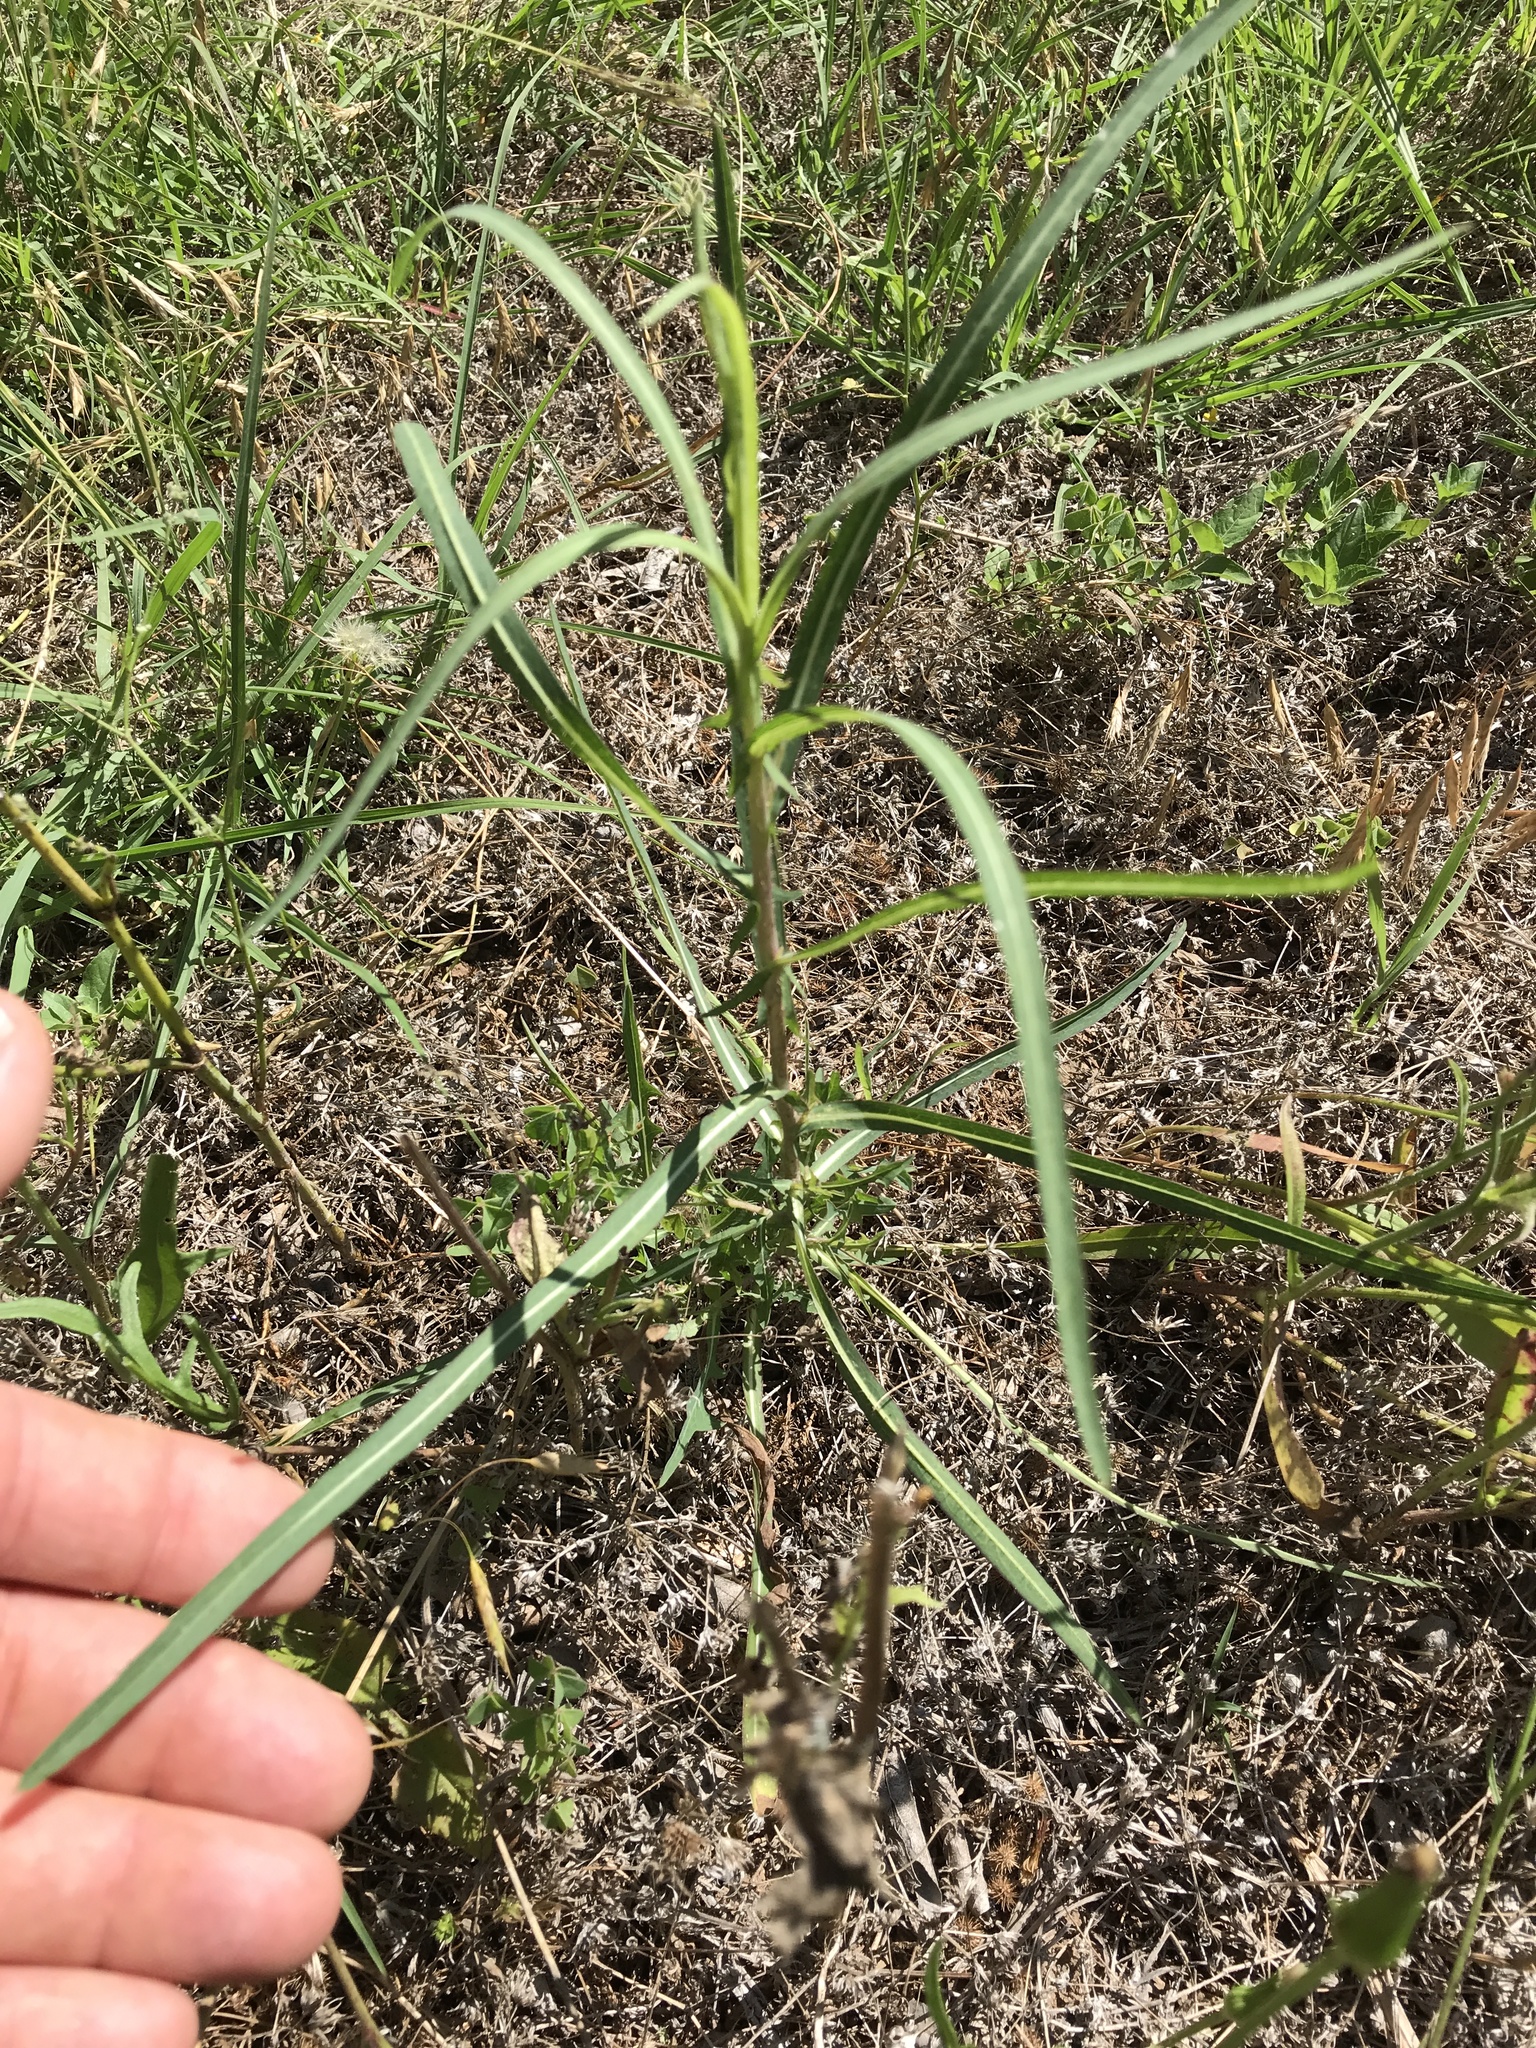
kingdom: Plantae
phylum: Tracheophyta
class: Magnoliopsida
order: Asterales
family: Asteraceae
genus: Lactuca
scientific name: Lactuca saligna
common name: Wild lettuce
